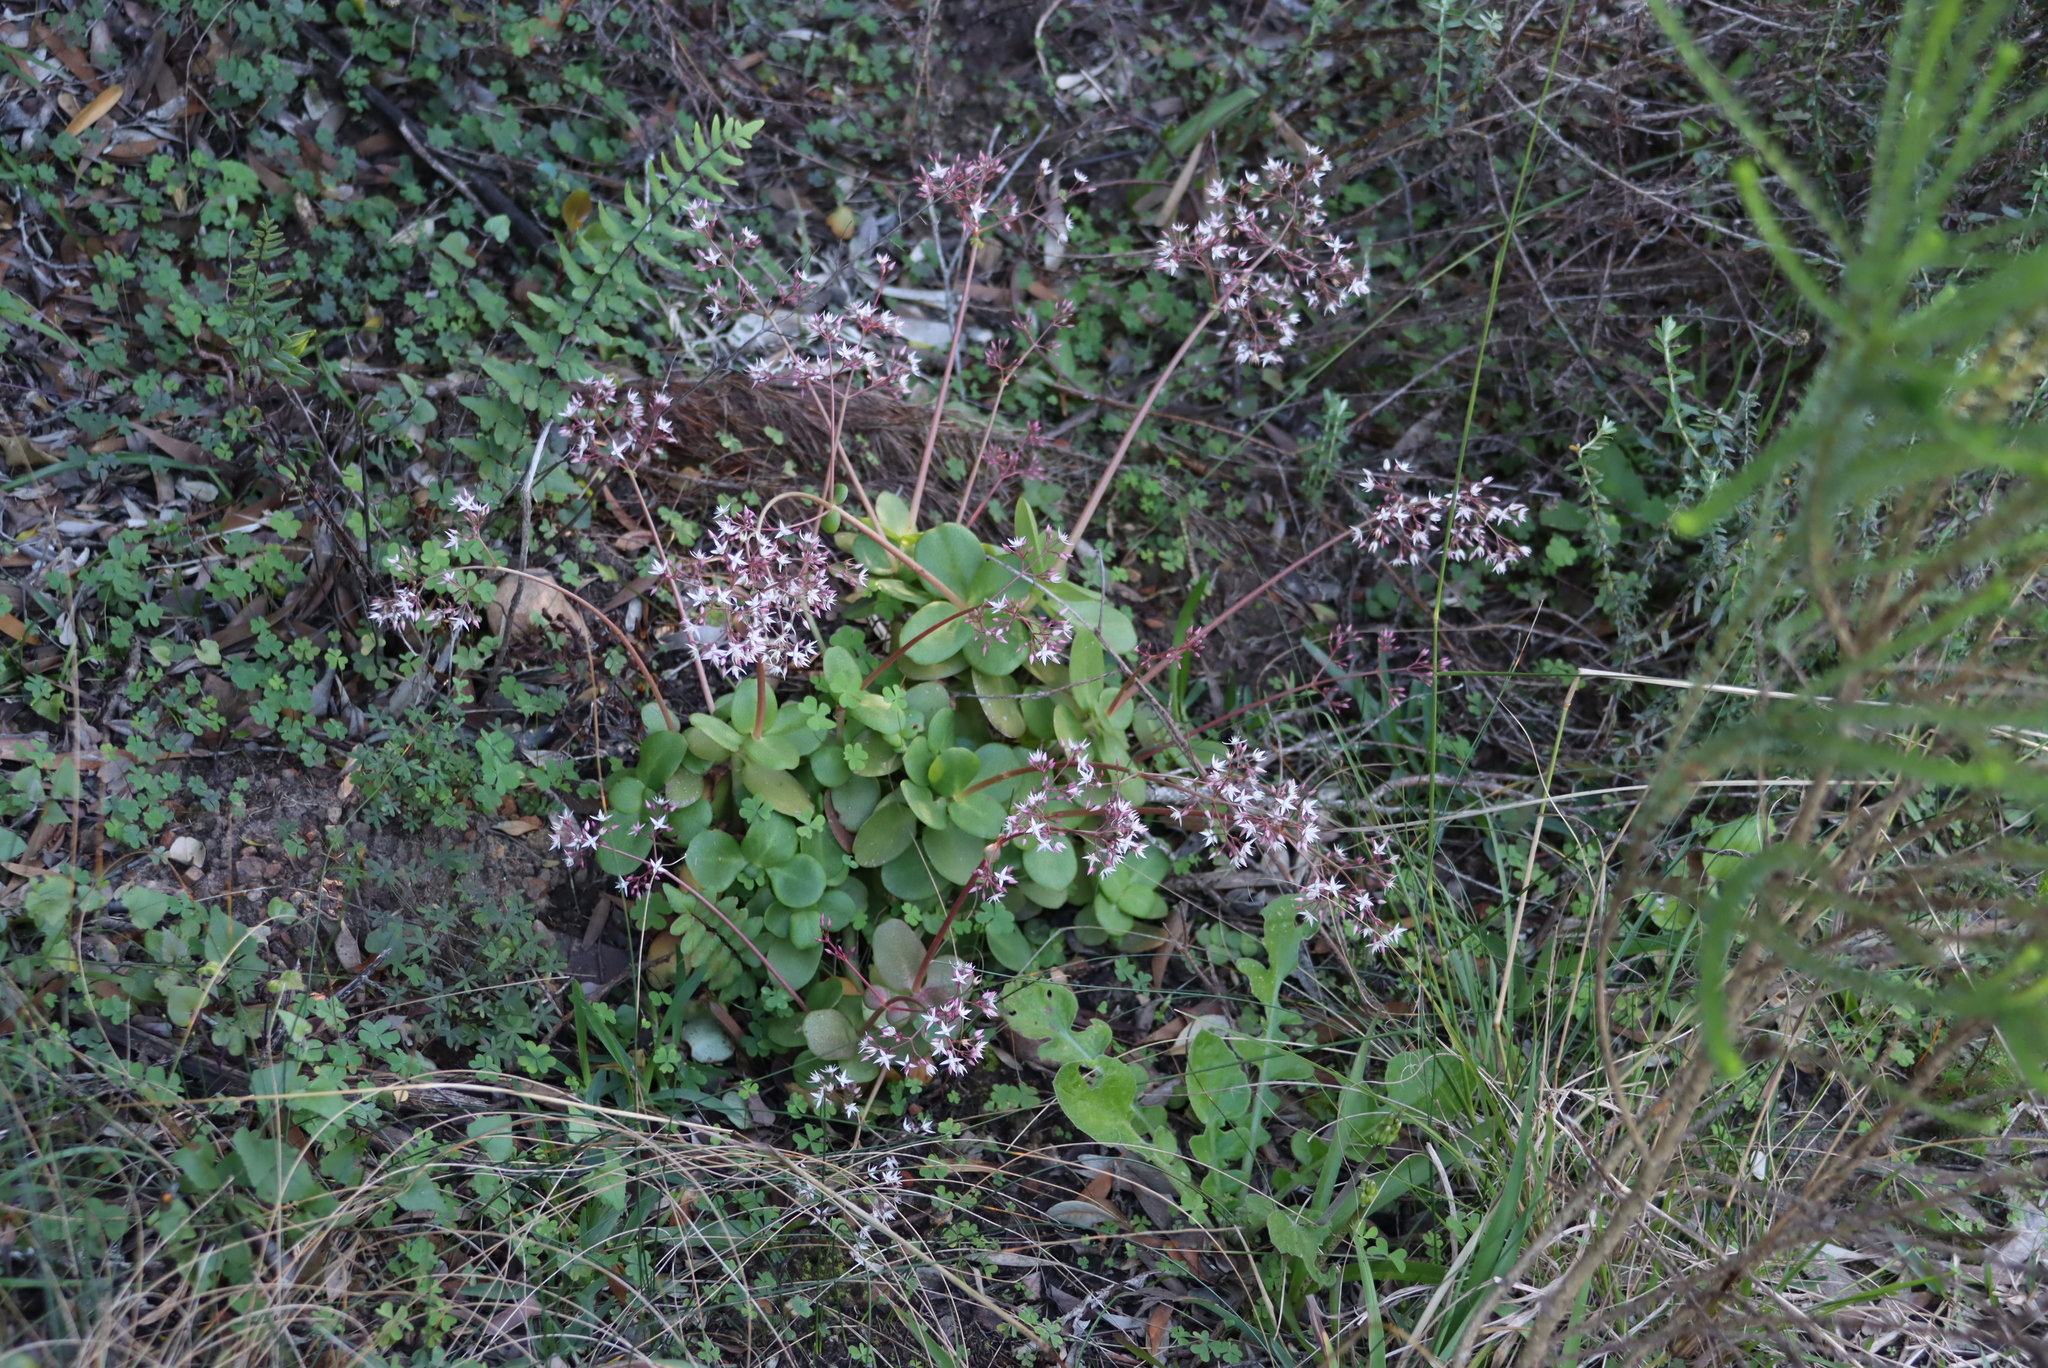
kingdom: Plantae
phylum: Tracheophyta
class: Magnoliopsida
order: Saxifragales
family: Crassulaceae
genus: Crassula
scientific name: Crassula multicava
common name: Cape province pygmyweed
